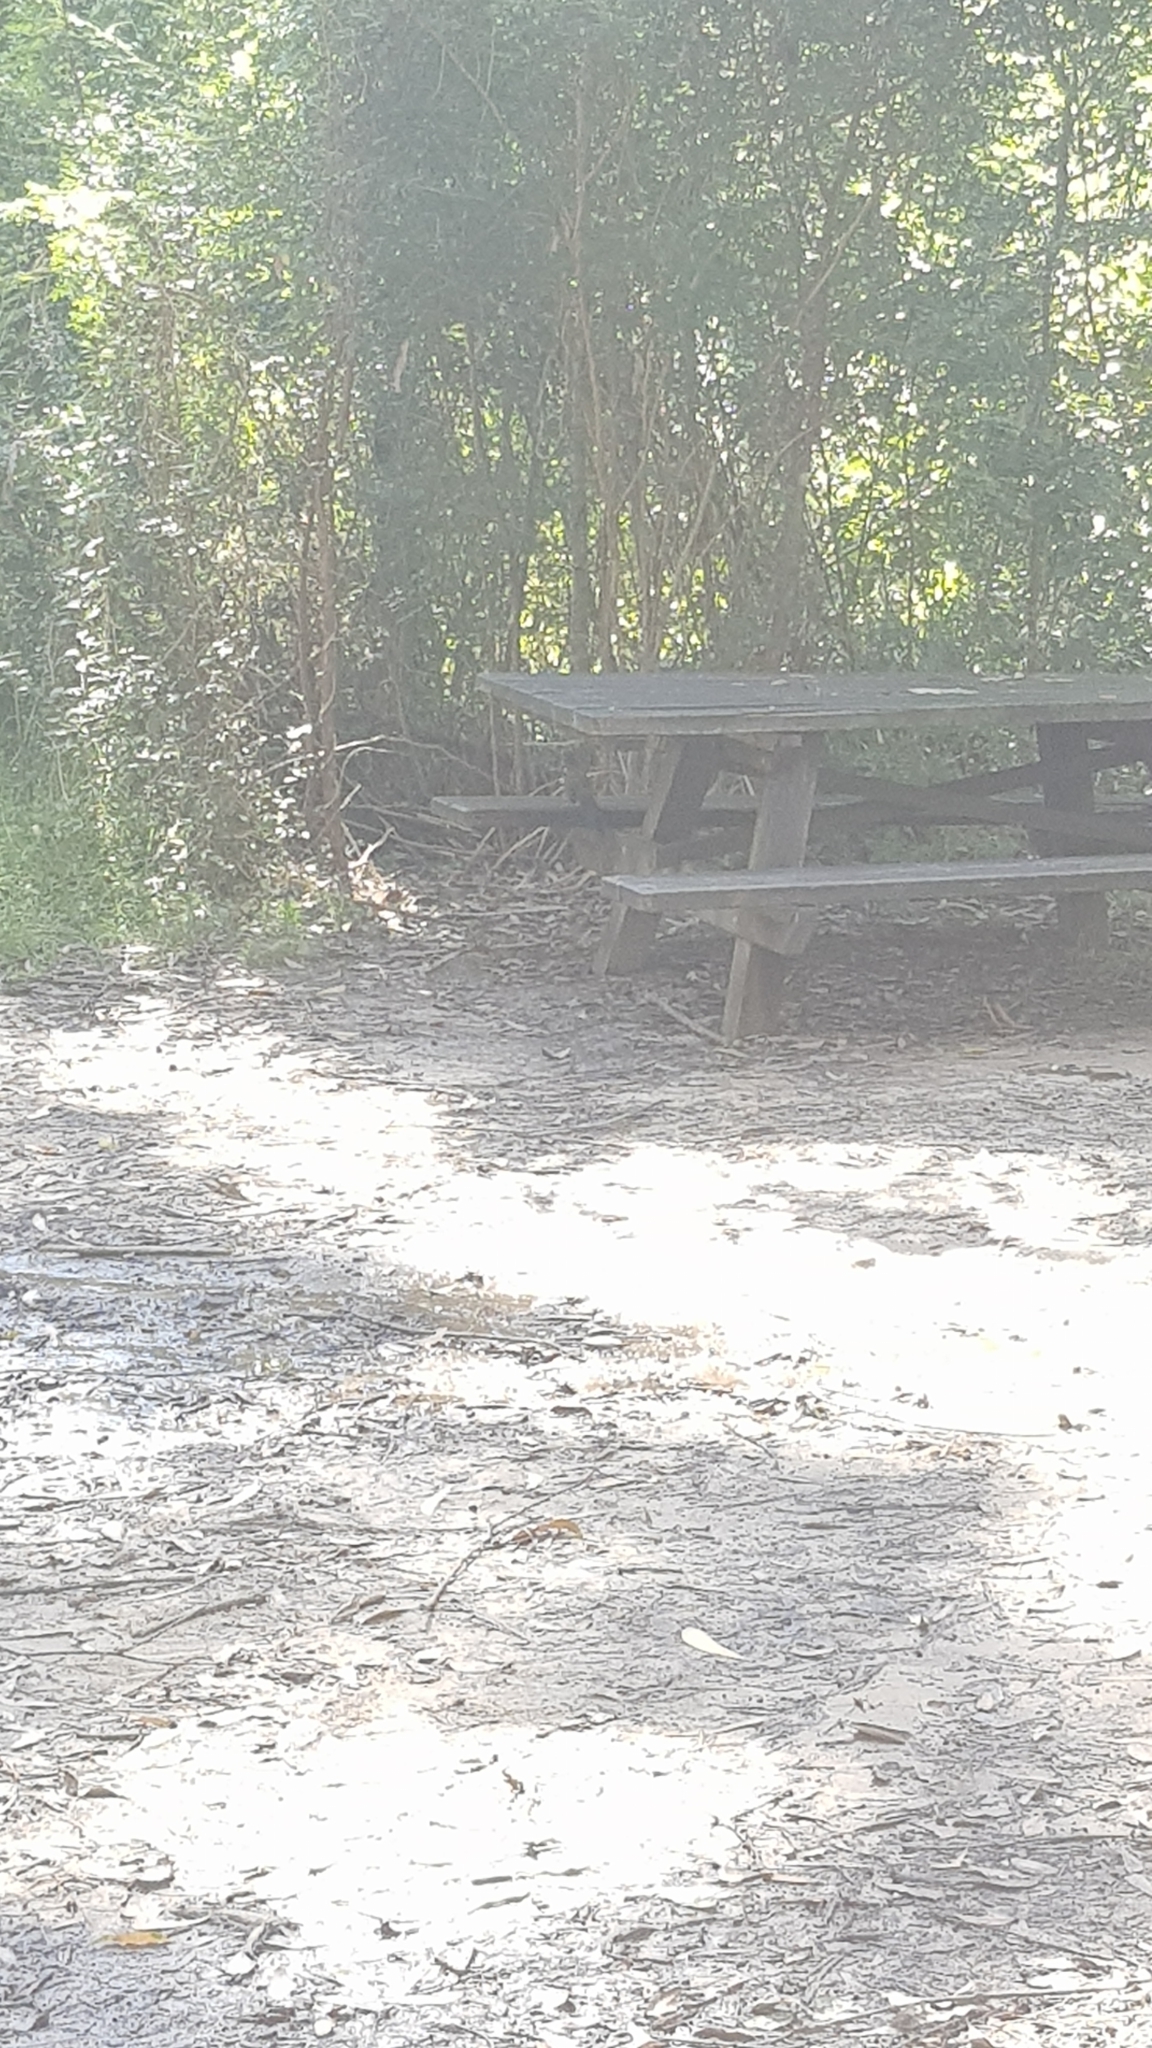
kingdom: Animalia
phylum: Chordata
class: Aves
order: Passeriformes
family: Psophodidae
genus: Psophodes
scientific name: Psophodes olivaceus
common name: Eastern whipbird
